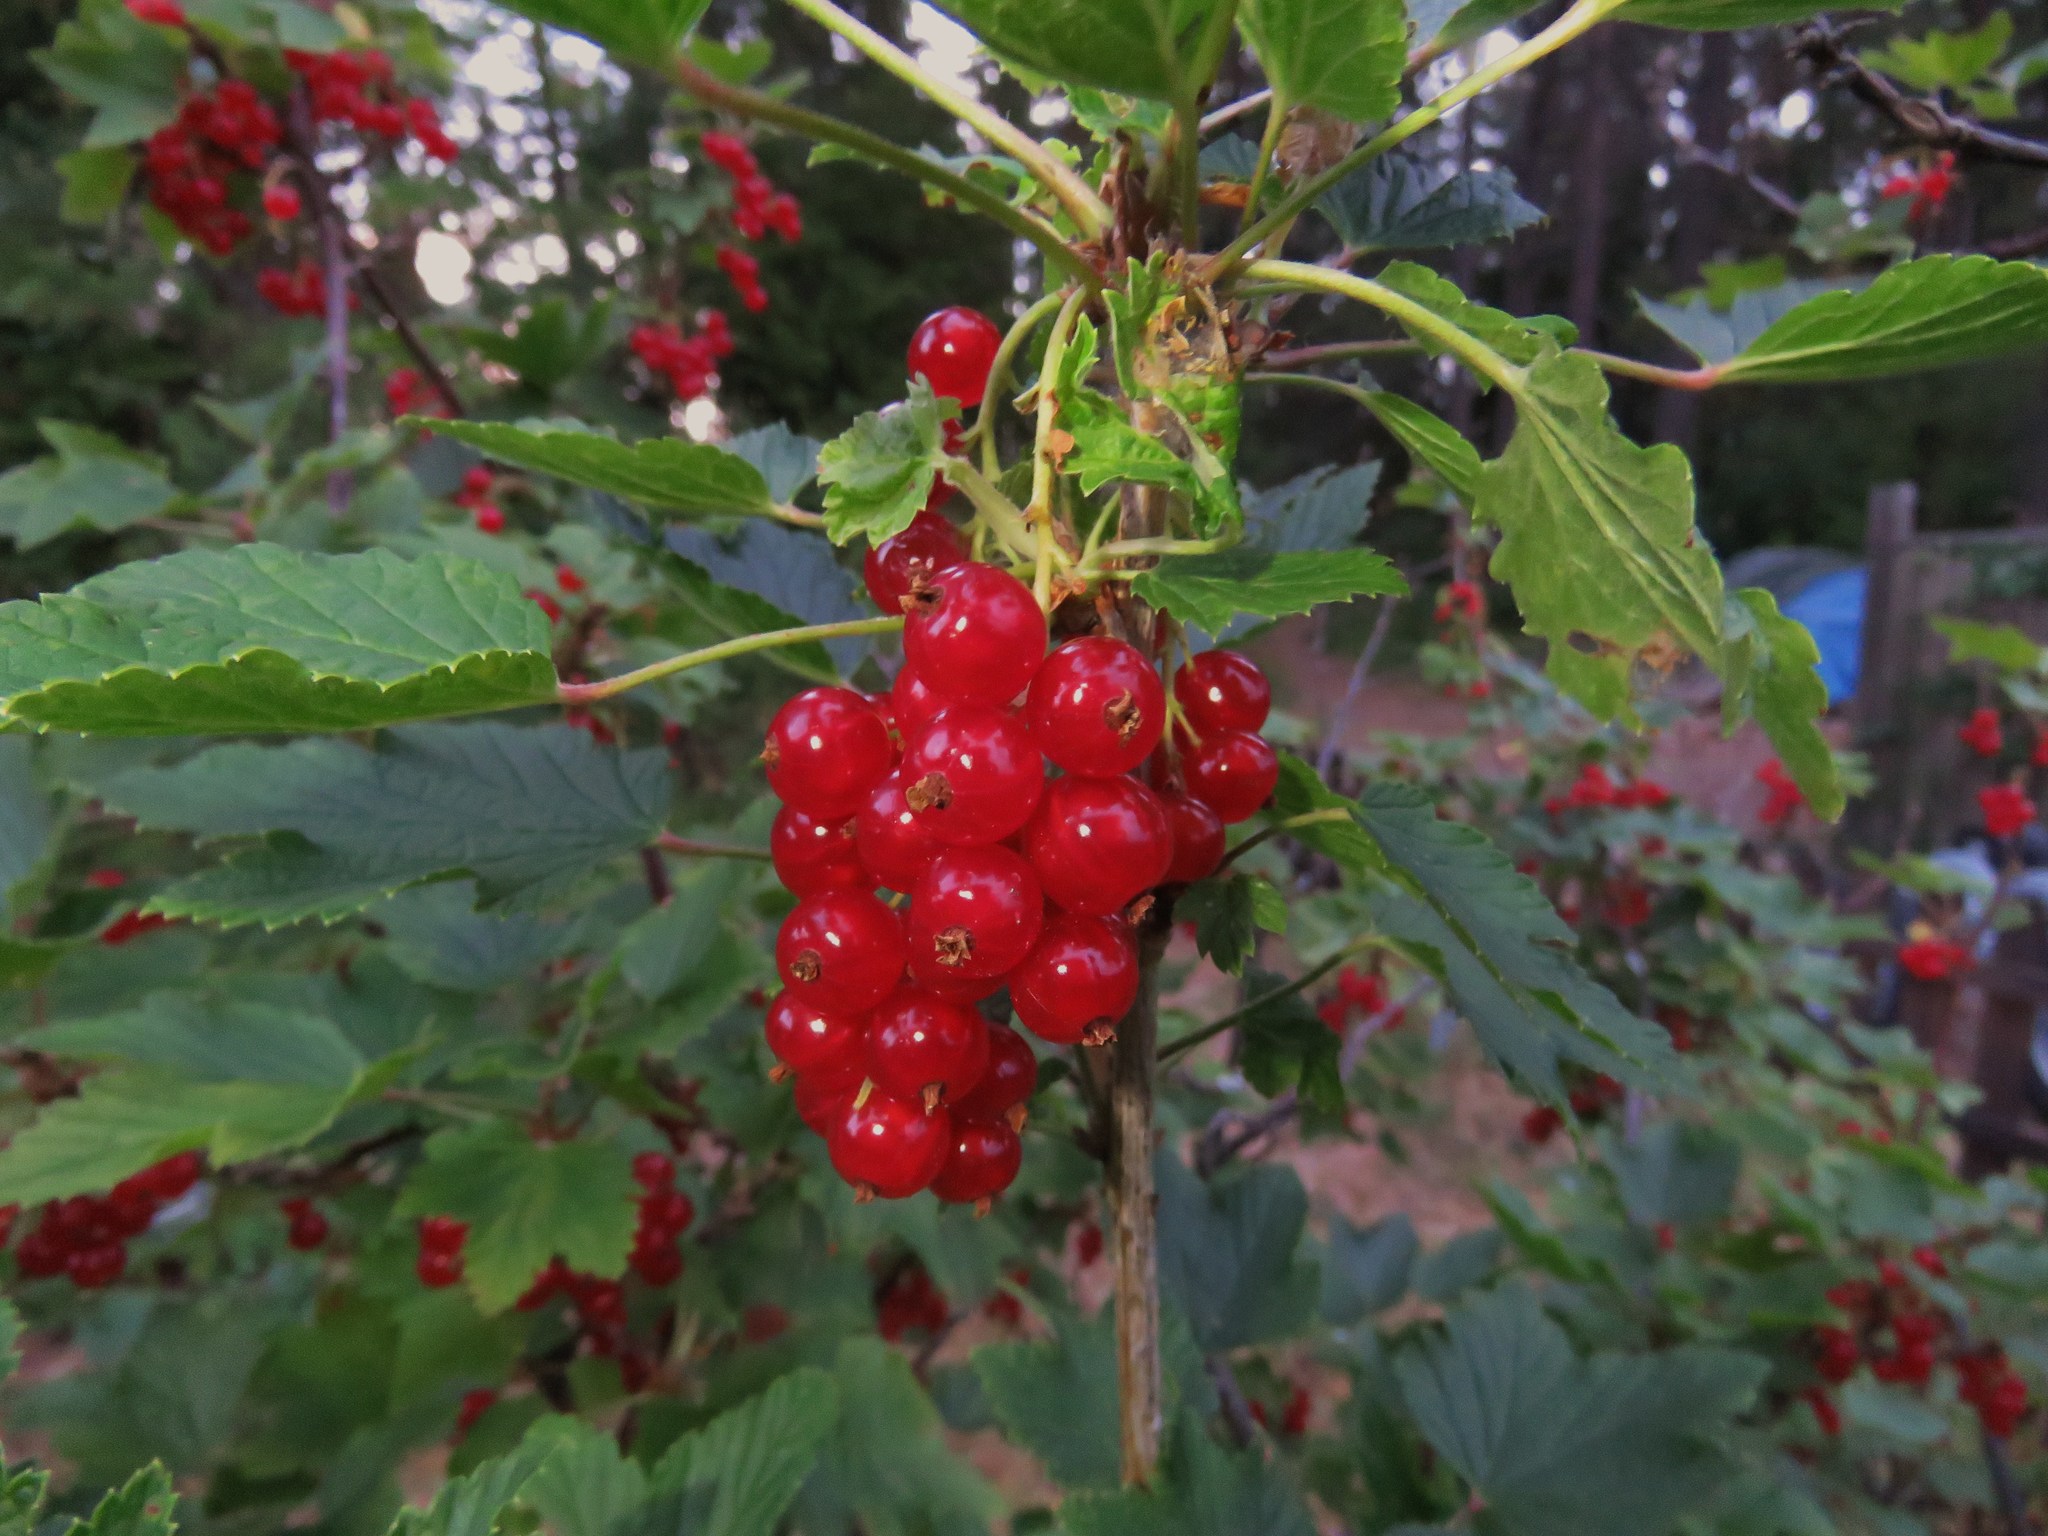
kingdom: Plantae
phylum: Tracheophyta
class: Magnoliopsida
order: Saxifragales
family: Grossulariaceae
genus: Ribes
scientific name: Ribes rubrum
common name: Red currant
